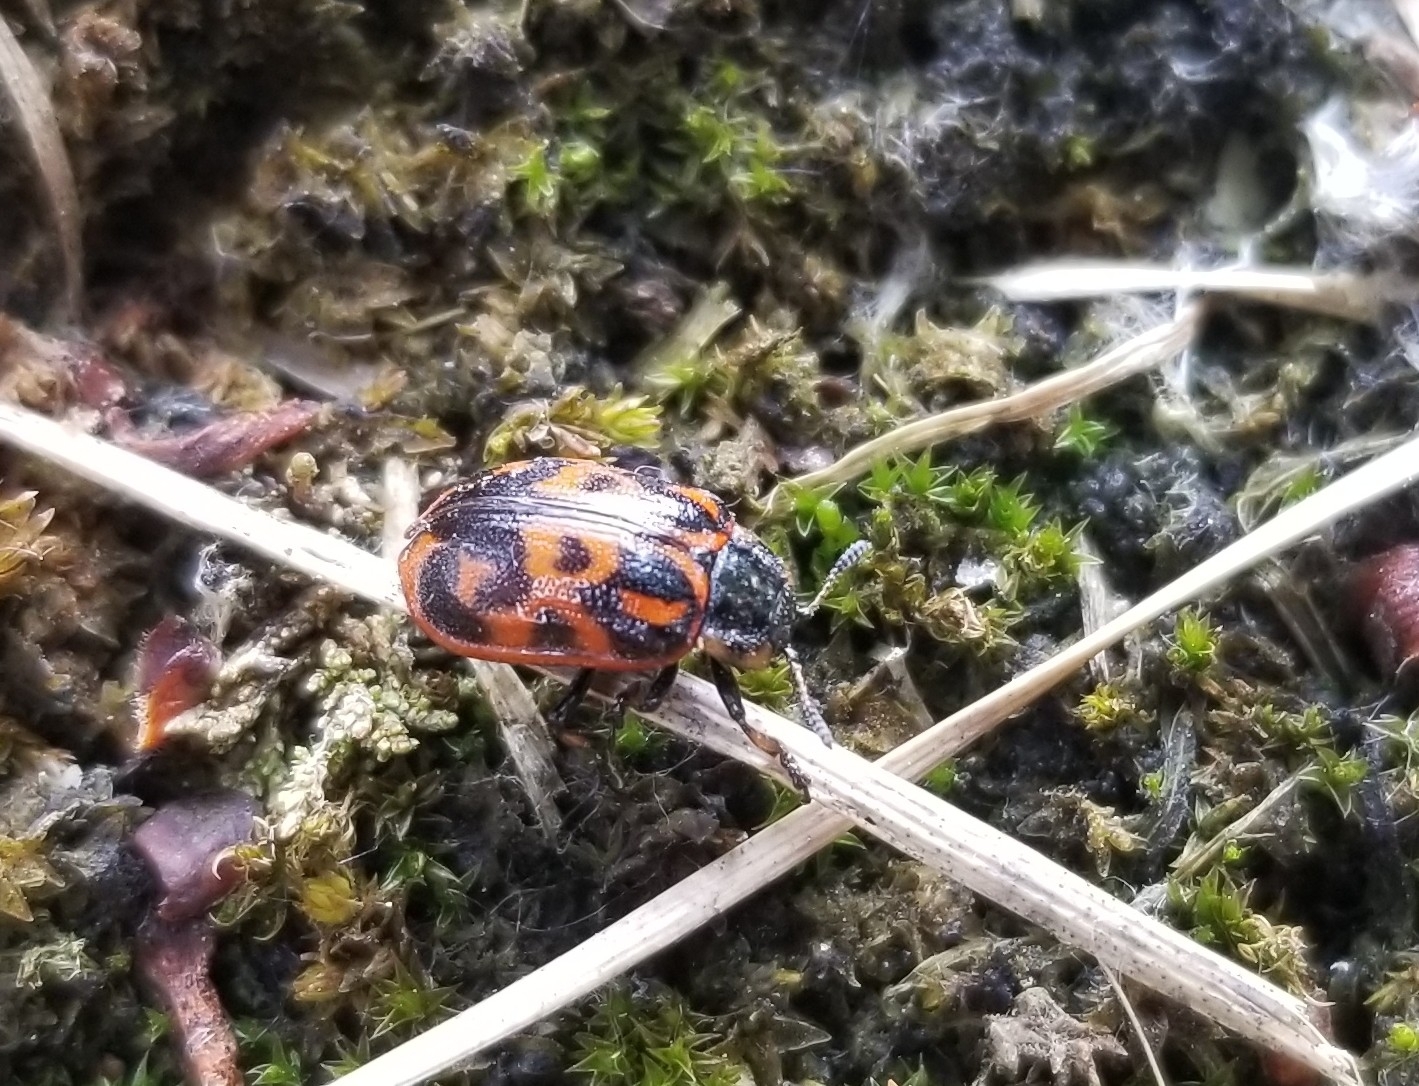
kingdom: Animalia
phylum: Arthropoda
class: Insecta
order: Coleoptera
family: Chrysomelidae
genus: Chrysomela
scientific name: Chrysomela
